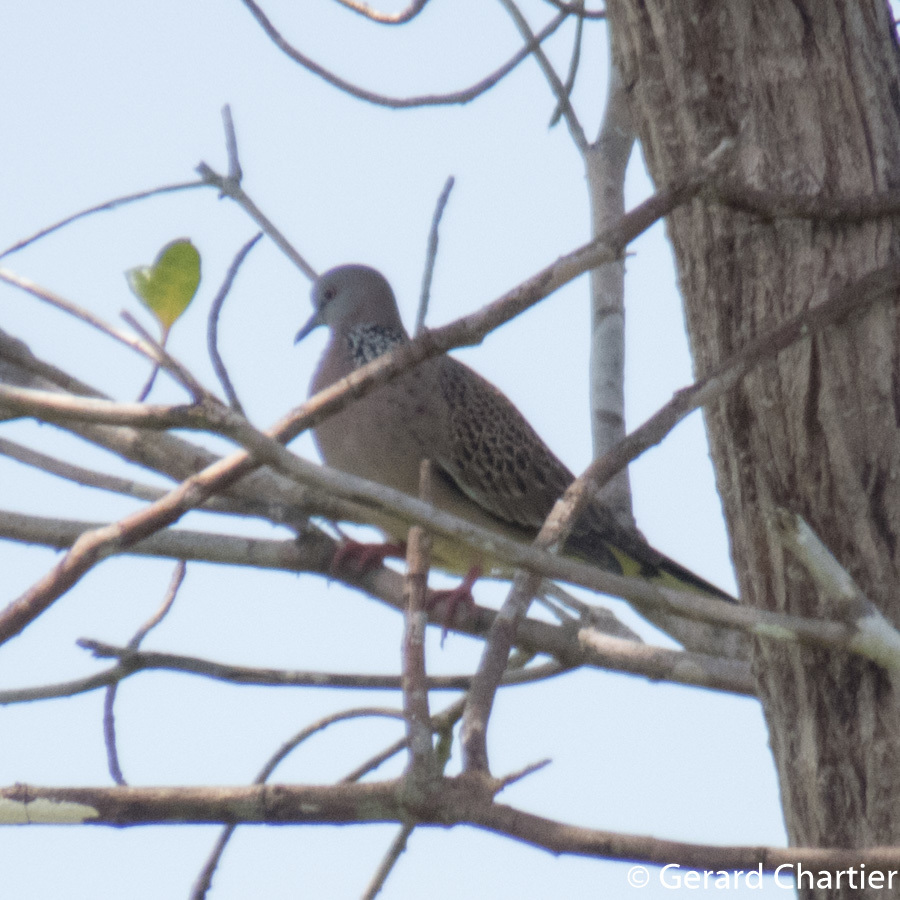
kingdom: Animalia
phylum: Chordata
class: Aves
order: Columbiformes
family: Columbidae
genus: Spilopelia
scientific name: Spilopelia chinensis
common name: Spotted dove
